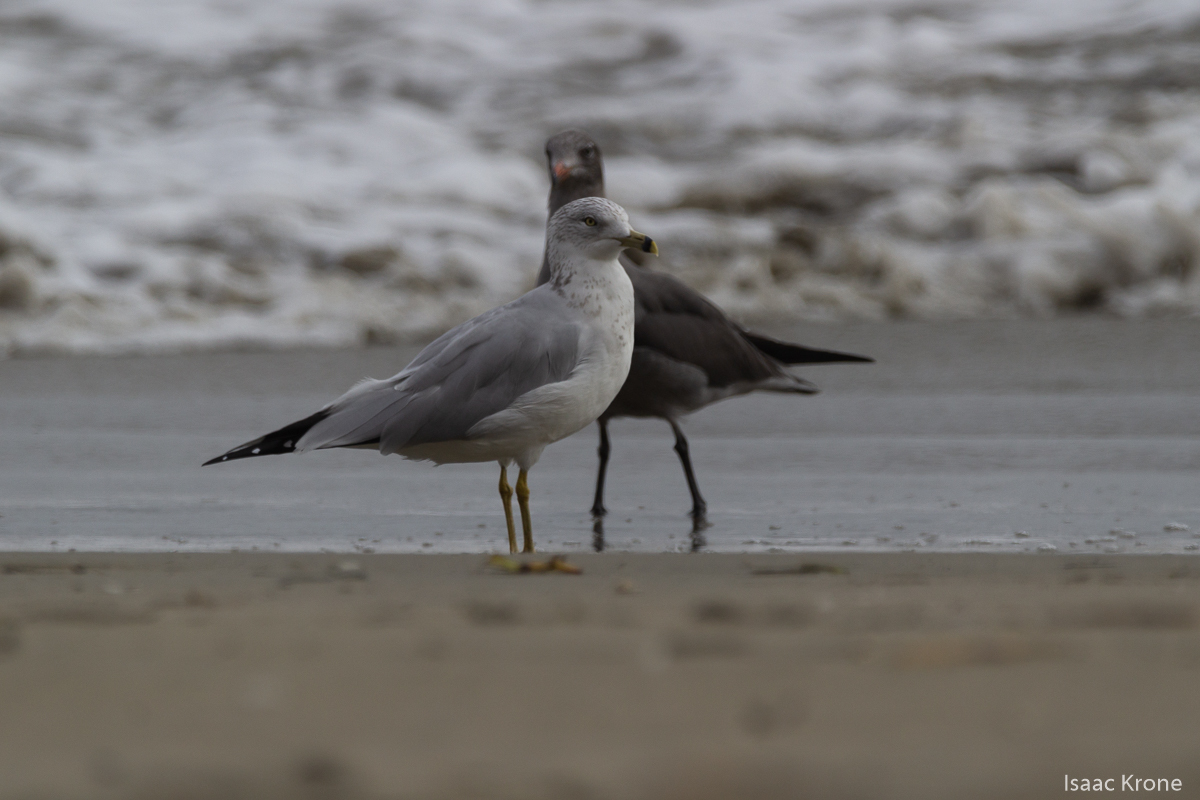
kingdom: Animalia
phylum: Chordata
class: Aves
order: Charadriiformes
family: Laridae
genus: Larus
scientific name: Larus delawarensis
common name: Ring-billed gull
